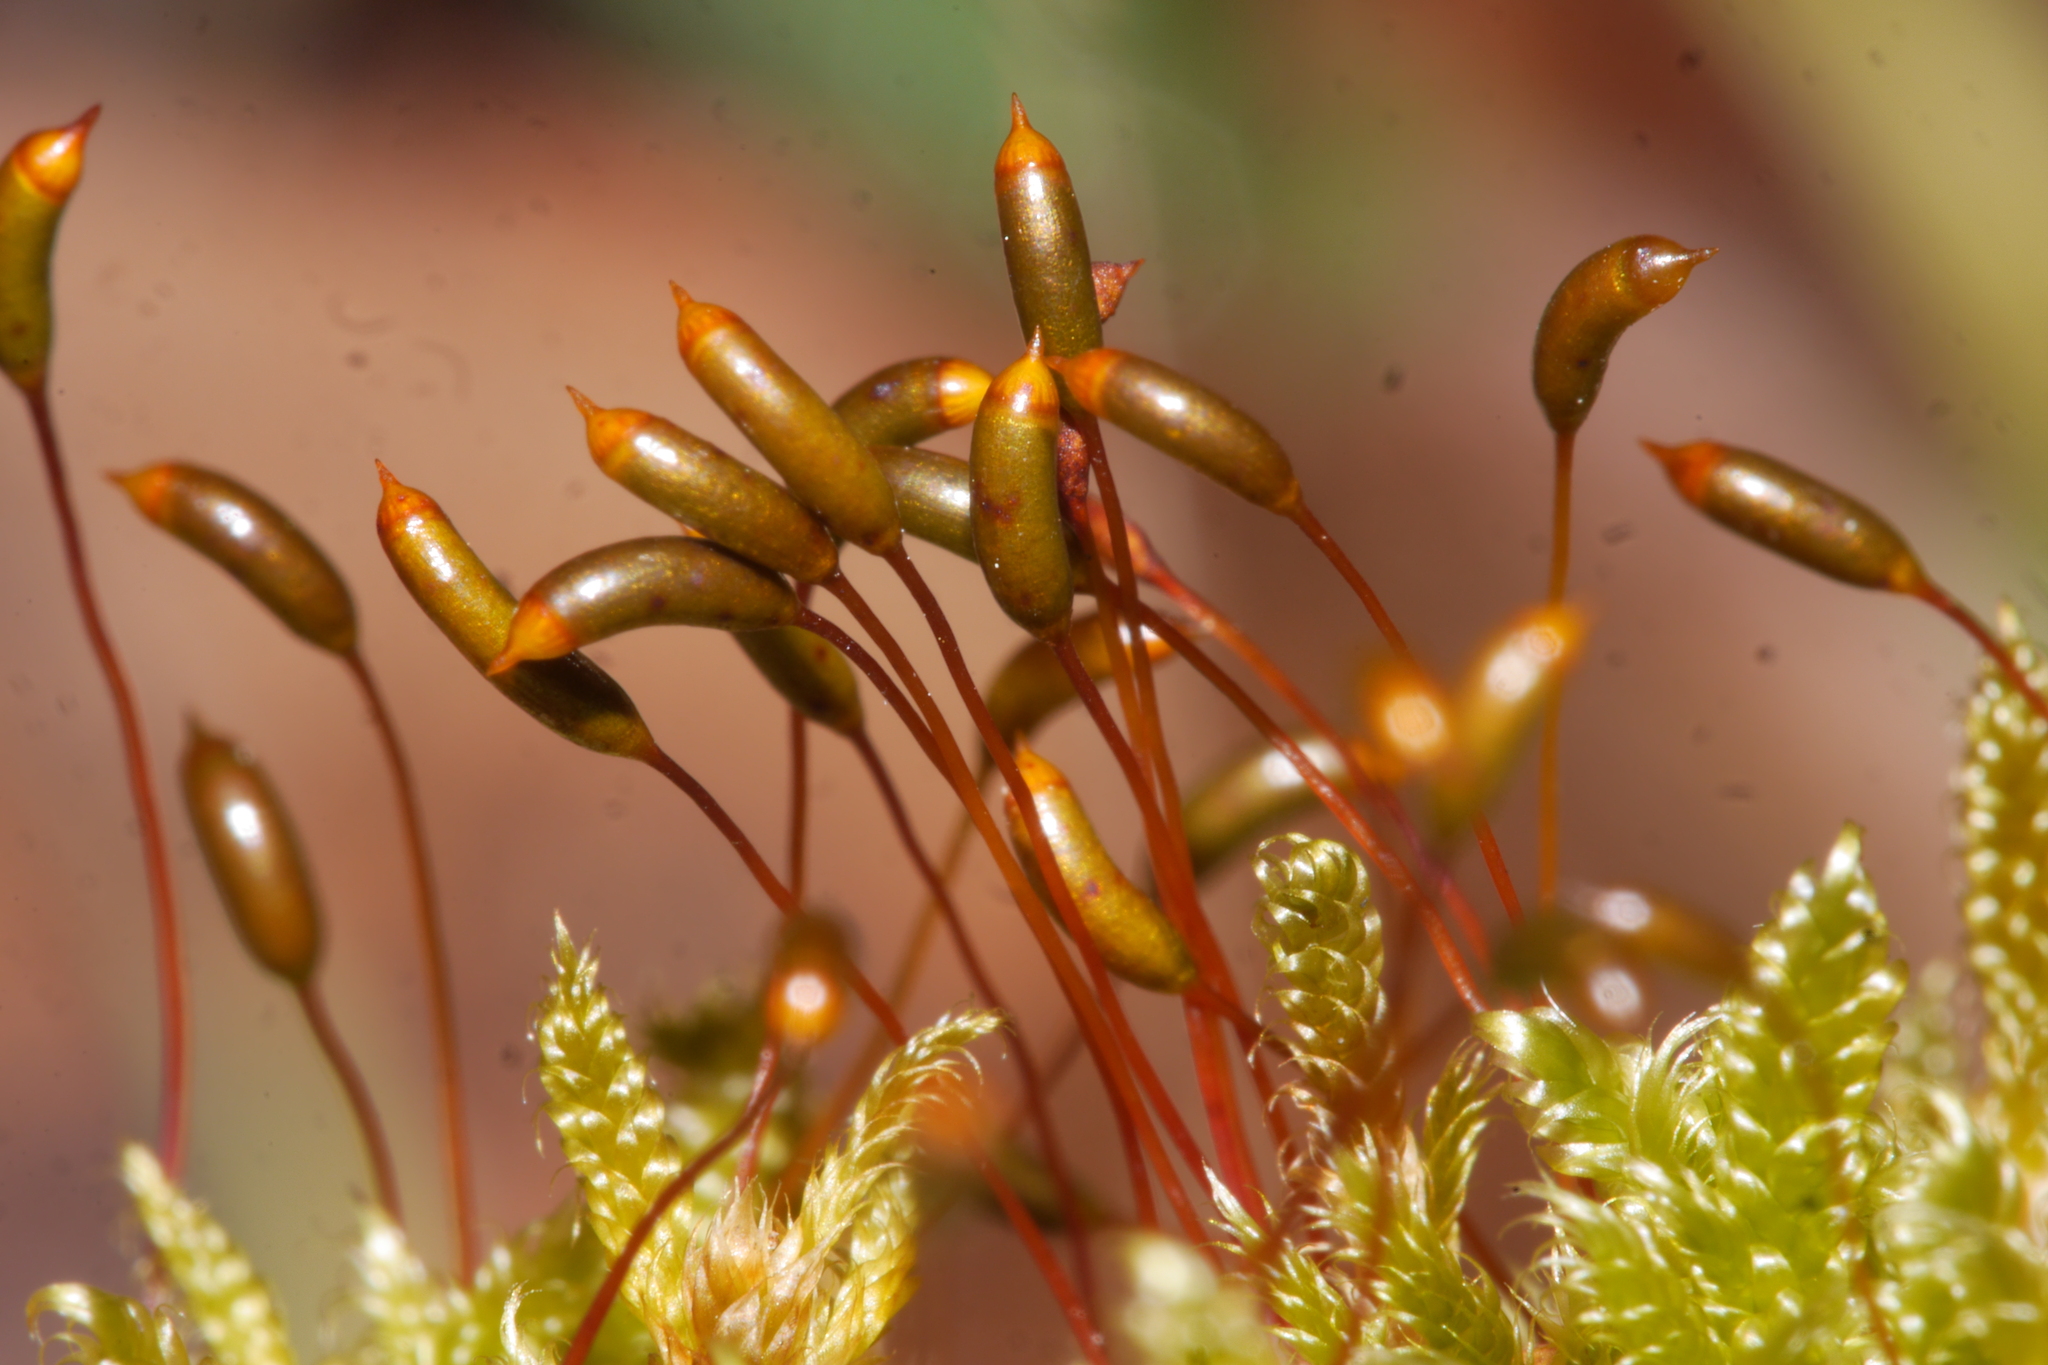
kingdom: Plantae
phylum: Bryophyta
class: Bryopsida
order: Hypnales
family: Hypnaceae
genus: Hypnum
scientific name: Hypnum cupressiforme
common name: Cypress-leaved plait-moss
